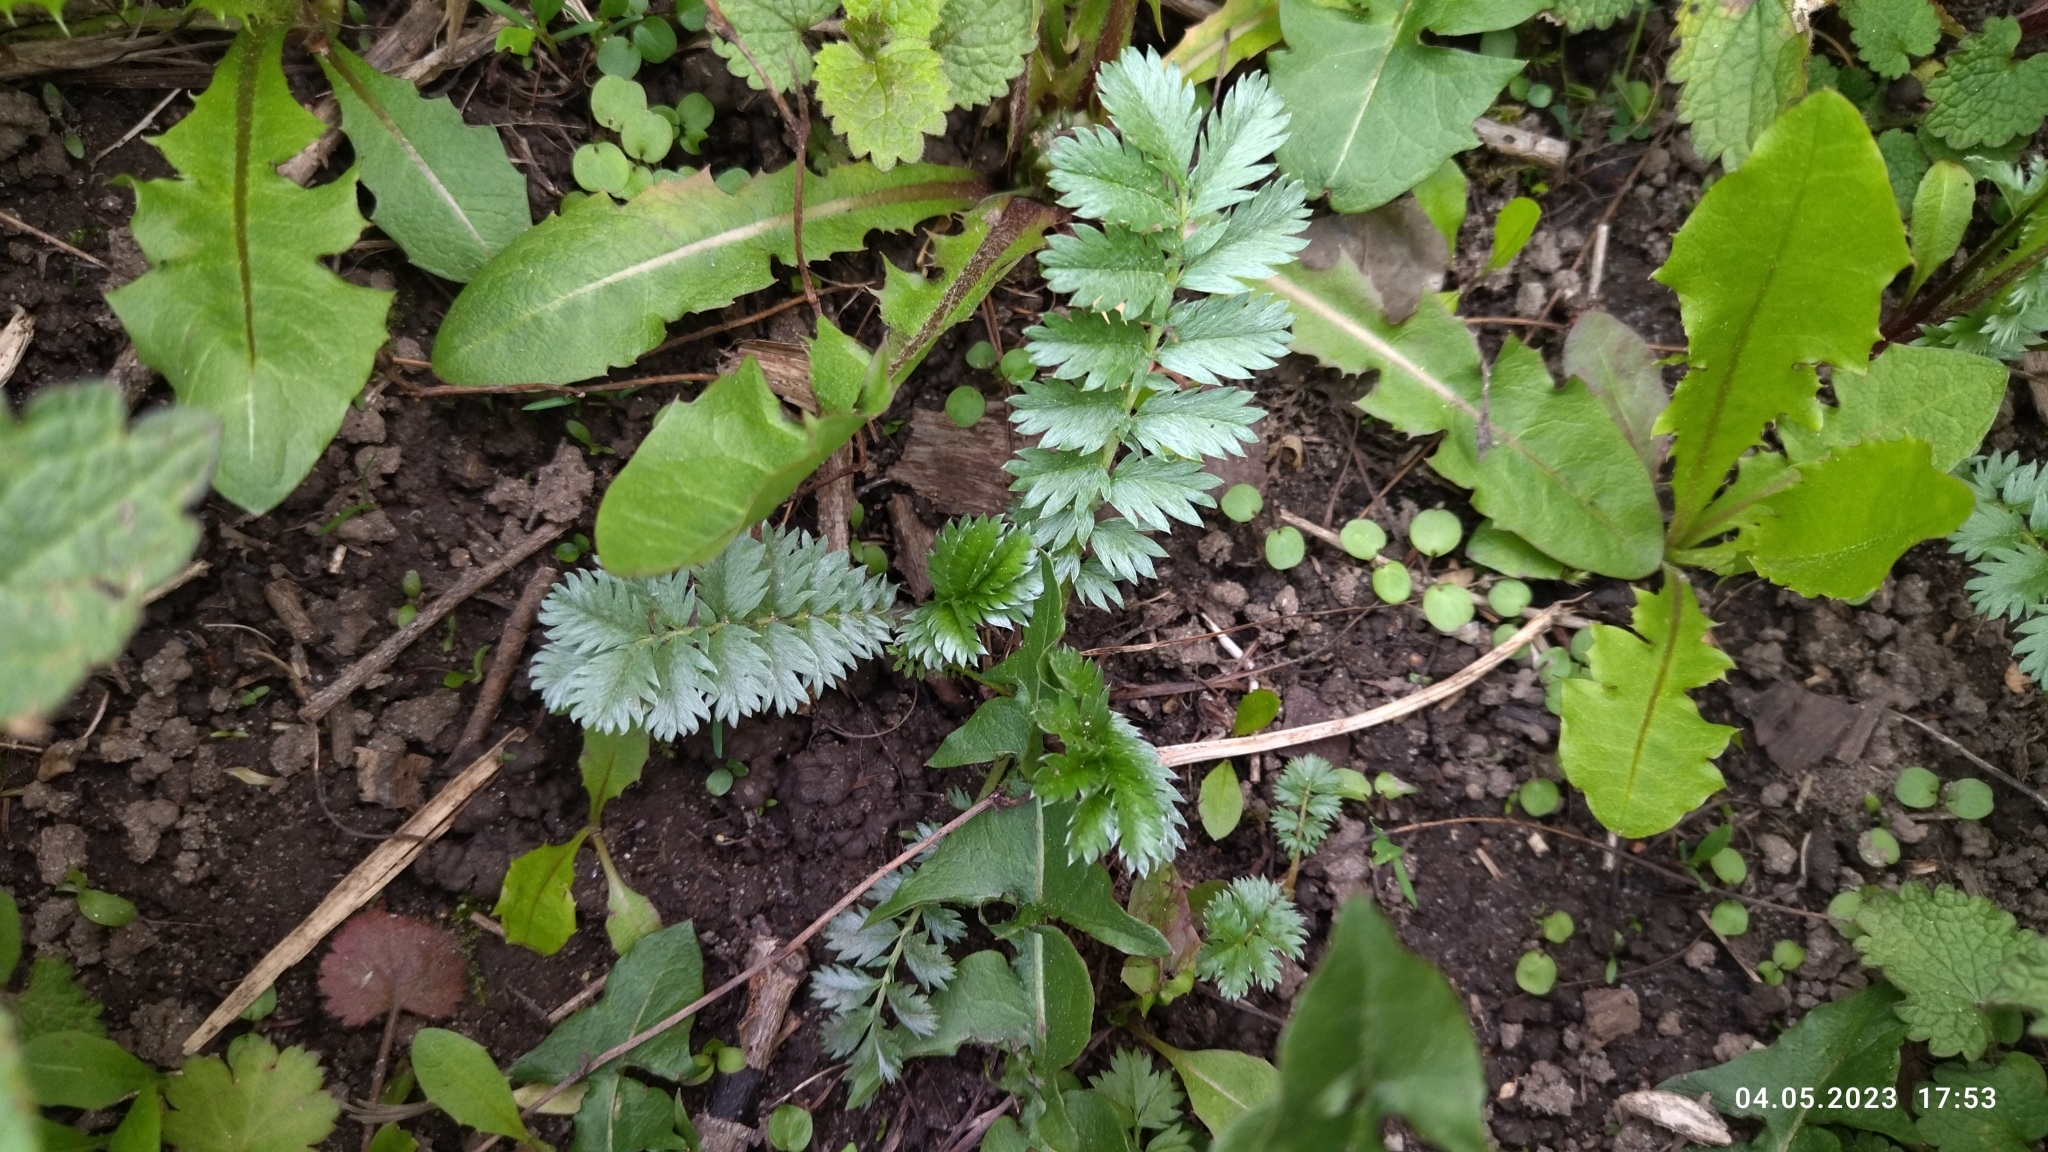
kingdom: Plantae
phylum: Tracheophyta
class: Magnoliopsida
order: Rosales
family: Rosaceae
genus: Argentina
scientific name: Argentina anserina
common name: Common silverweed
